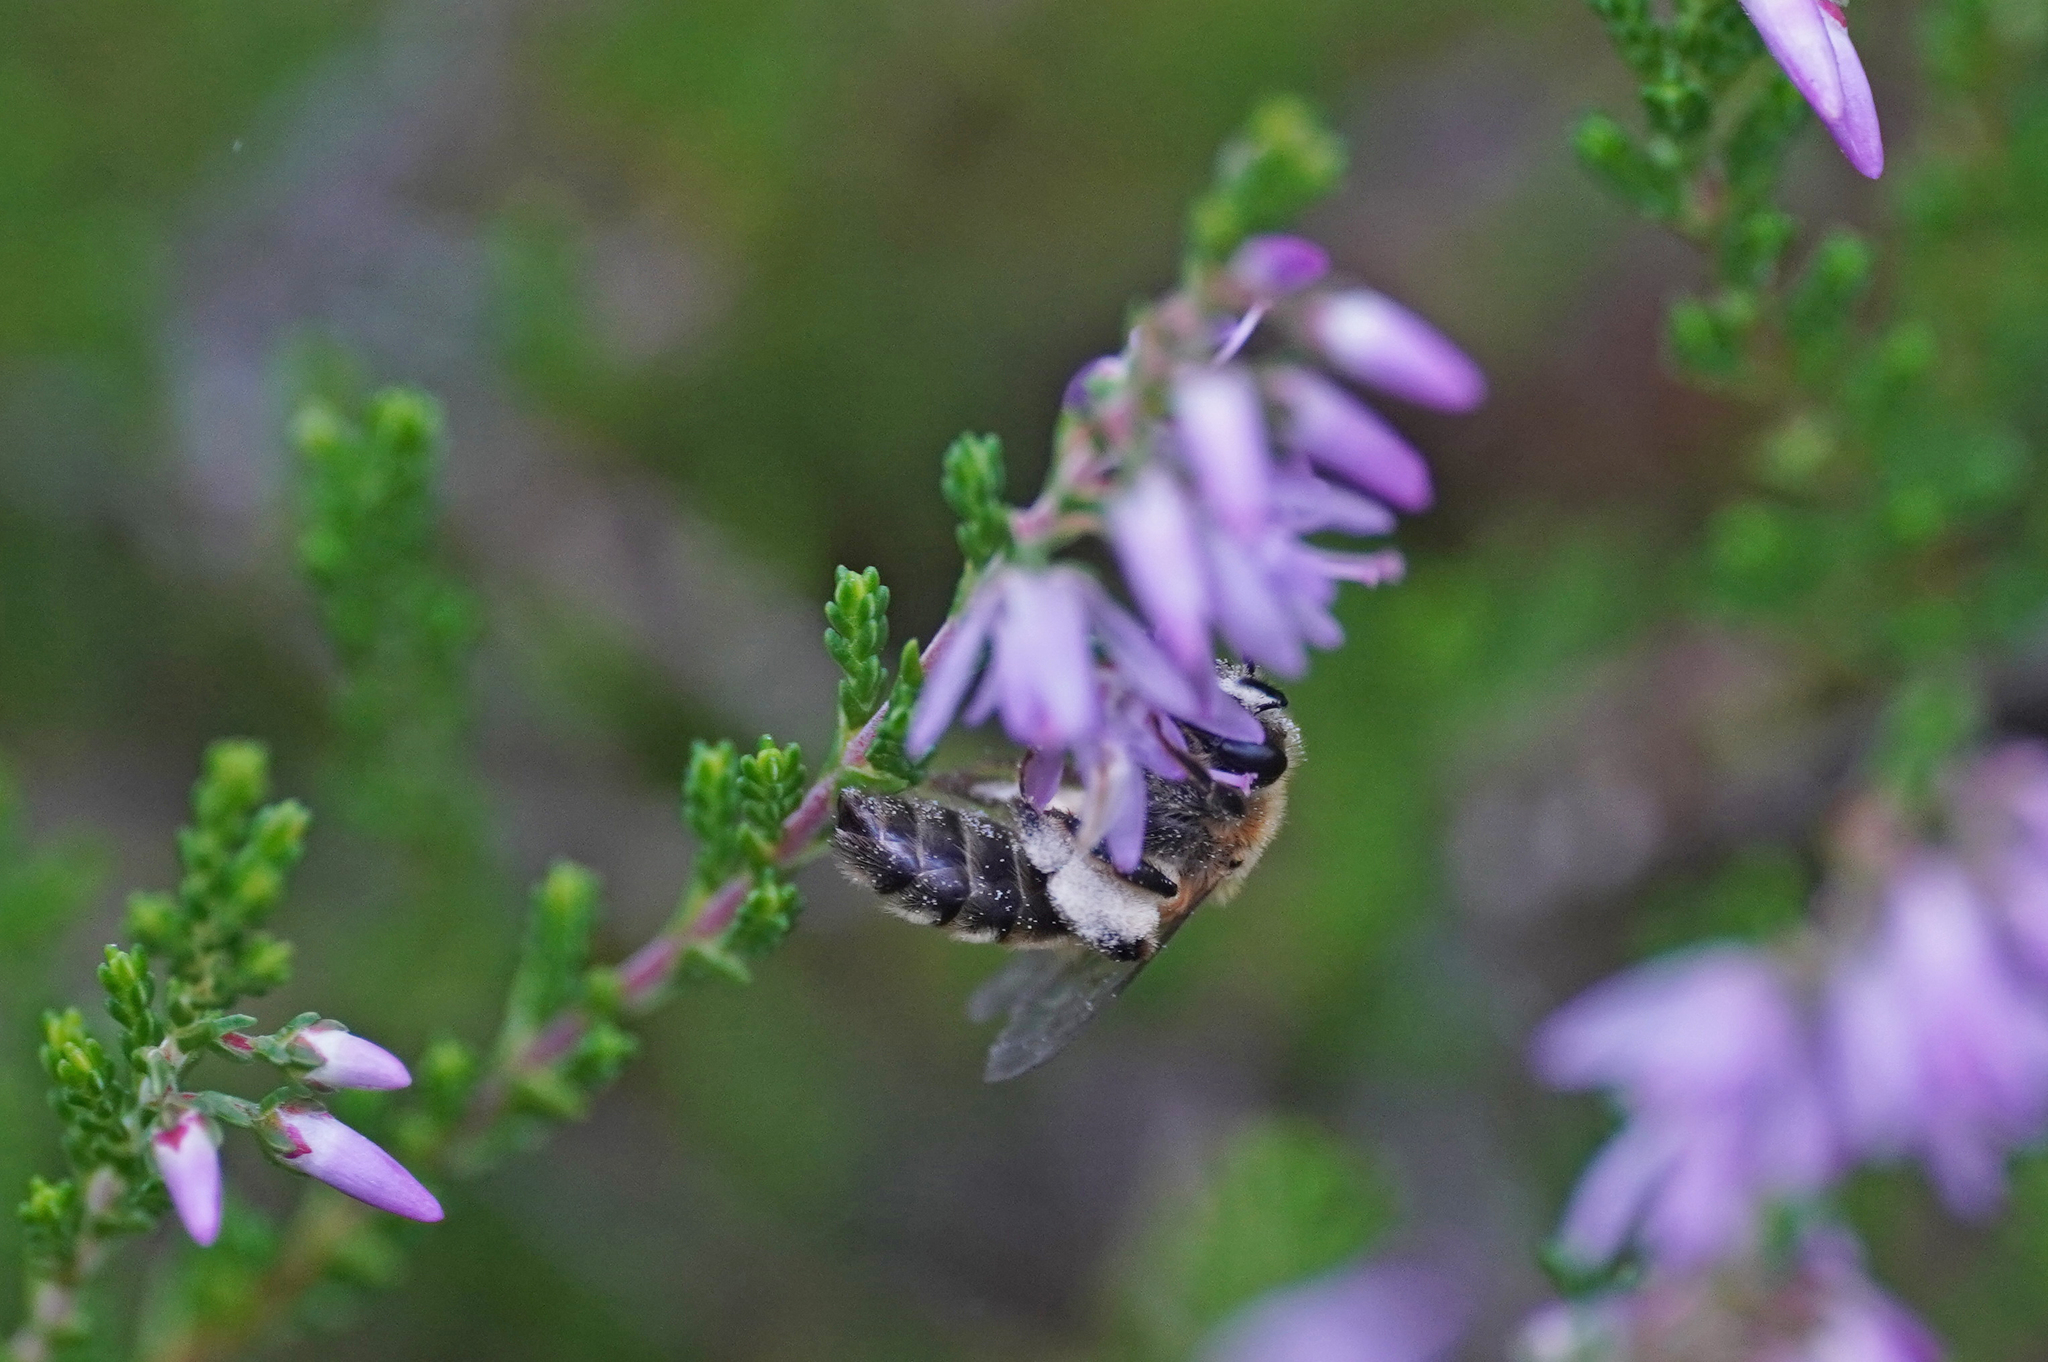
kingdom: Animalia
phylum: Arthropoda
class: Insecta
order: Hymenoptera
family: Andrenidae
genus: Andrena
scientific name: Andrena fuscipes
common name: Heather mining bee
